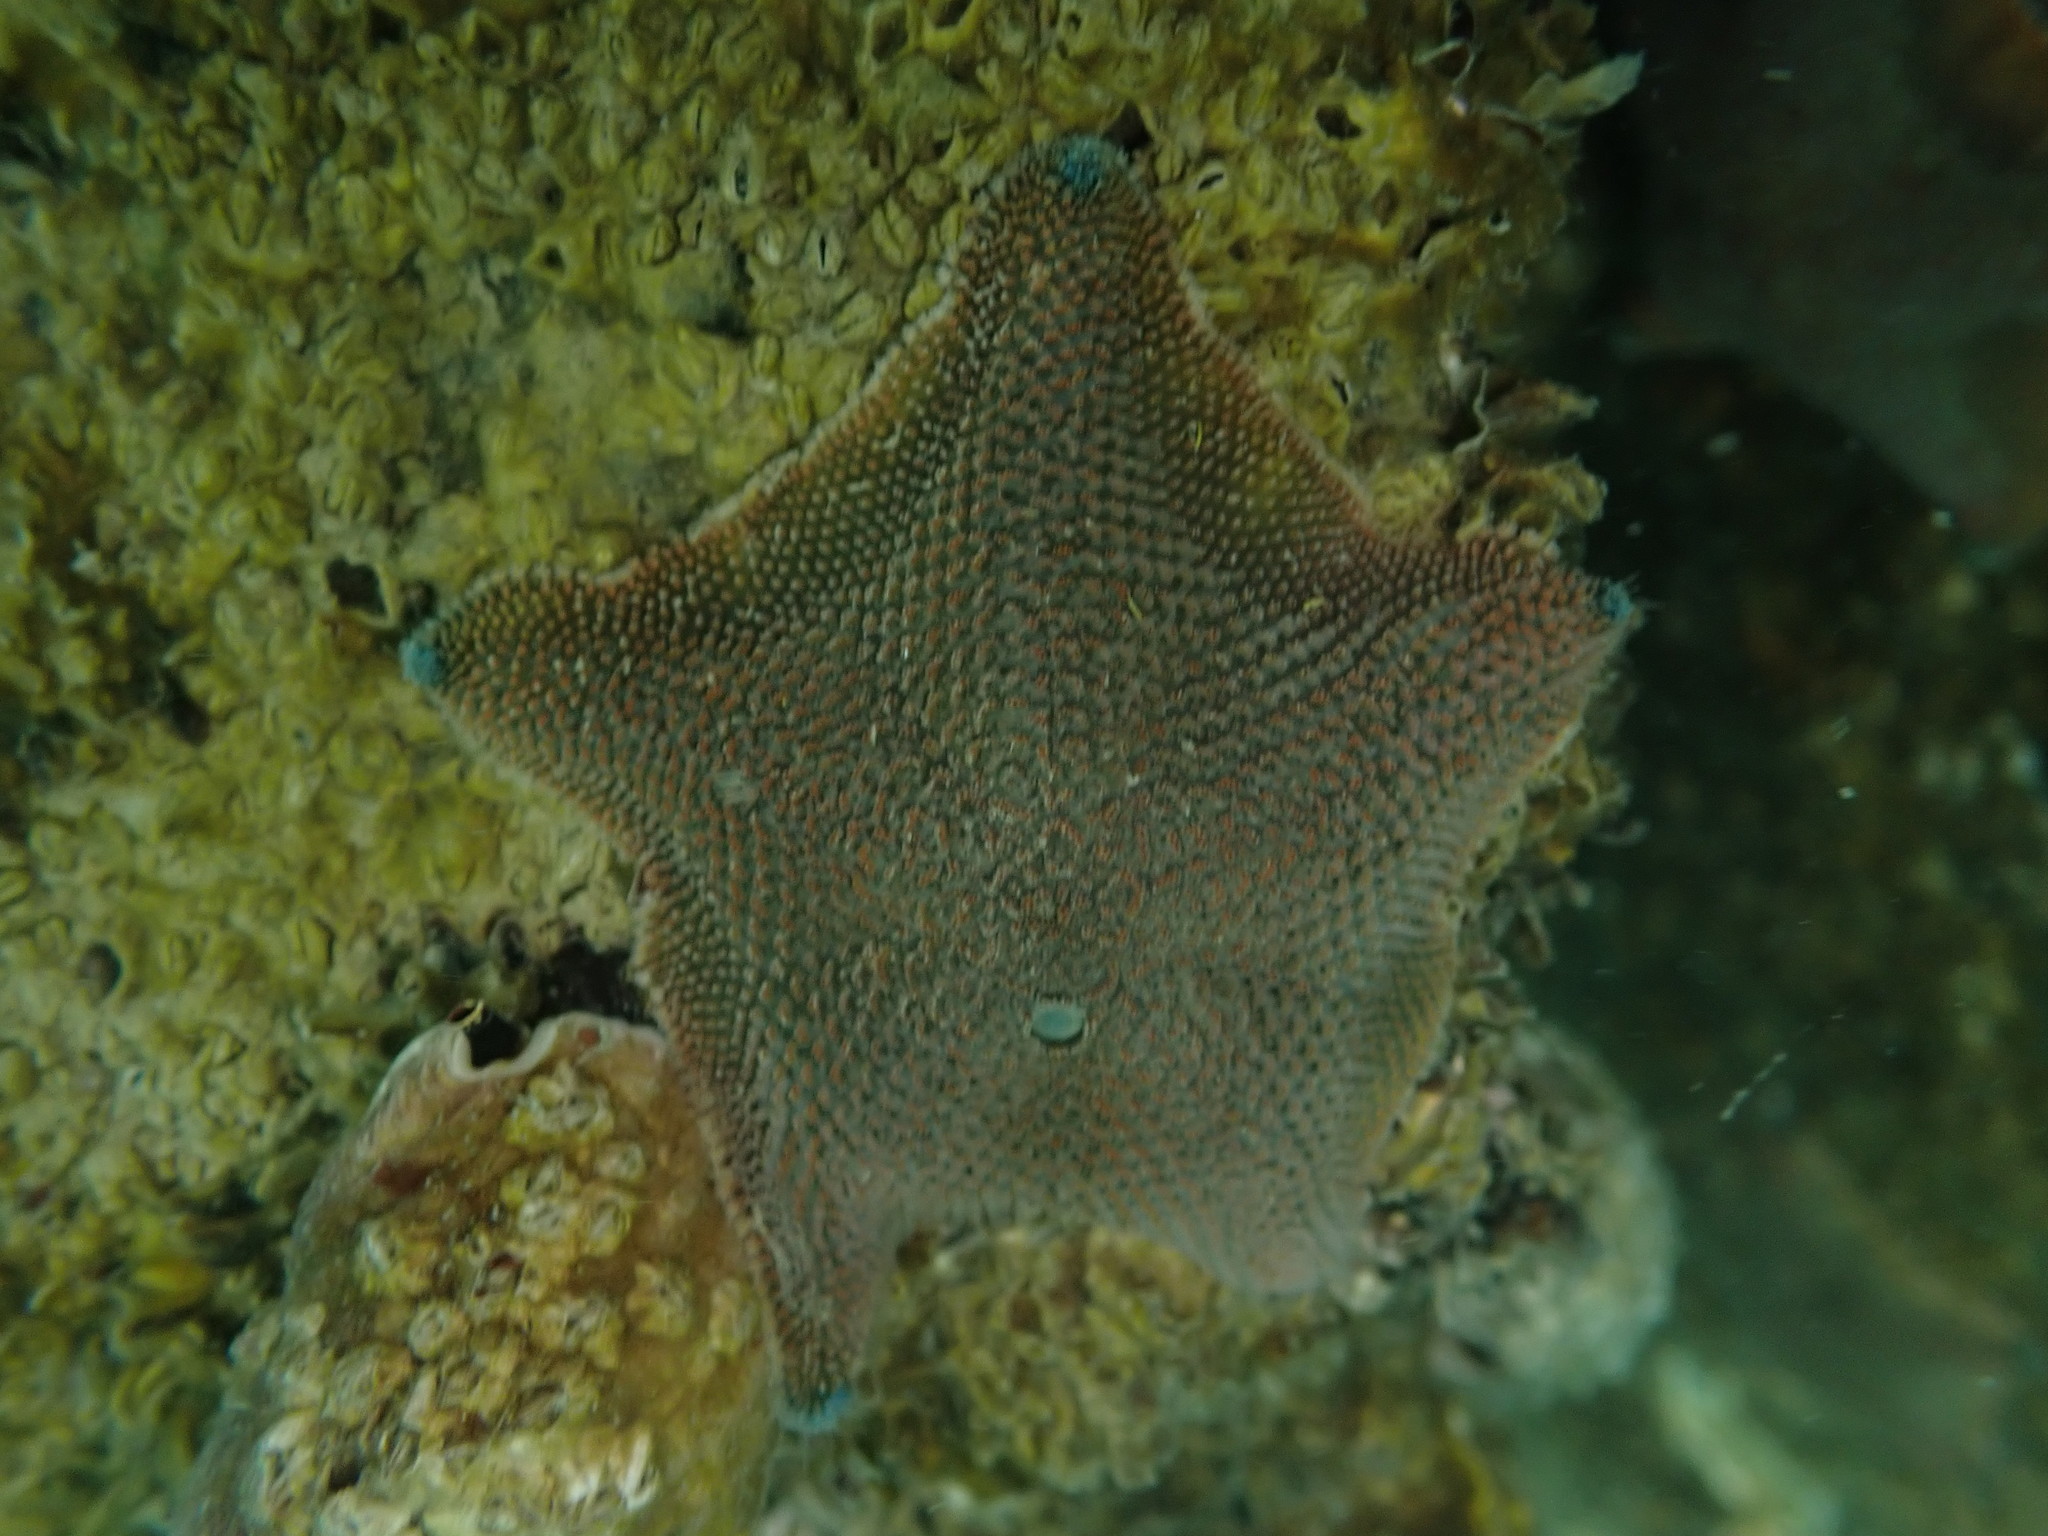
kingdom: Animalia
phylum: Echinodermata
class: Asteroidea
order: Valvatida
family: Asterinidae
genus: Patiriella
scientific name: Patiriella regularis
